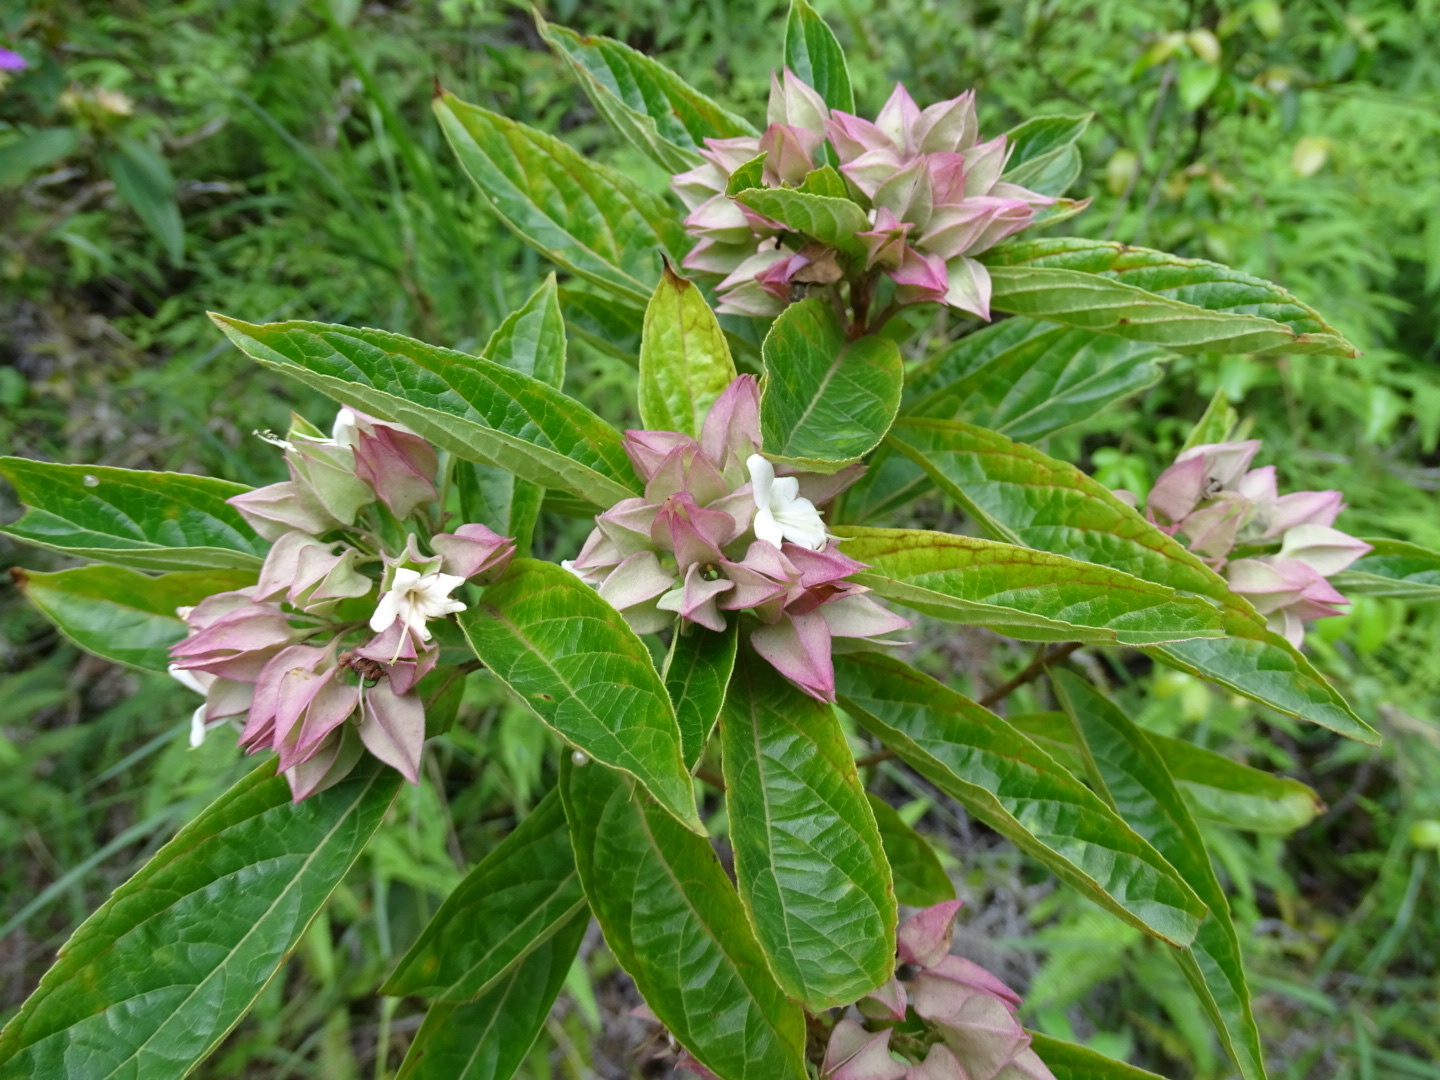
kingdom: Plantae
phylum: Tracheophyta
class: Magnoliopsida
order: Lamiales
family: Lamiaceae
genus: Clerodendrum
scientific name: Clerodendrum fortunatum
